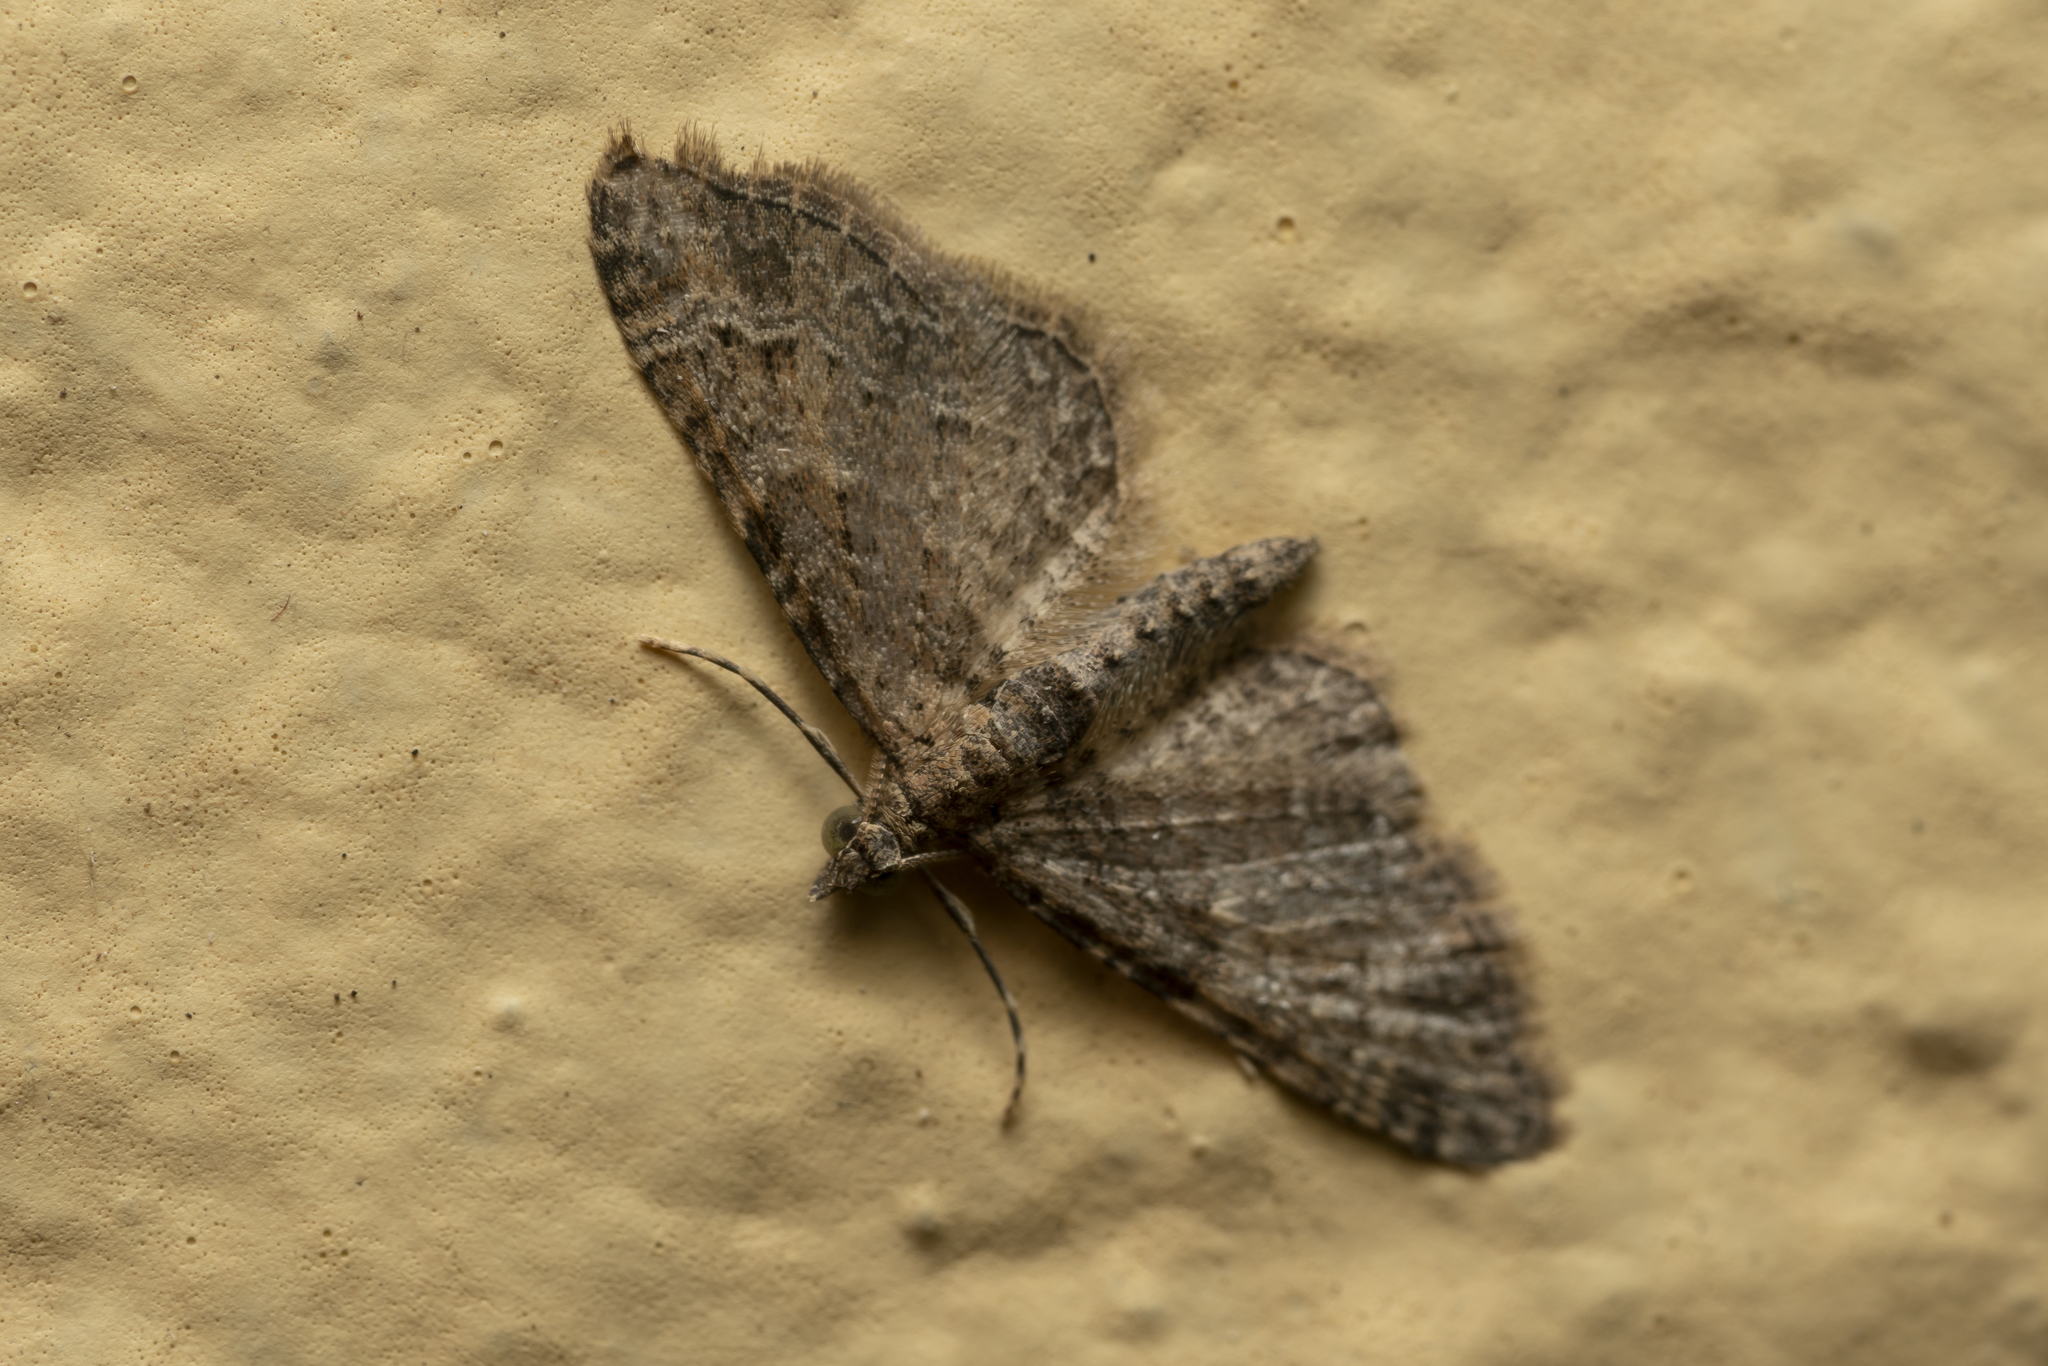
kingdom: Animalia
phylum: Arthropoda
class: Insecta
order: Lepidoptera
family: Geometridae
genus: Gymnoscelis
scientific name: Gymnoscelis rufifasciata
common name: Double-striped pug
